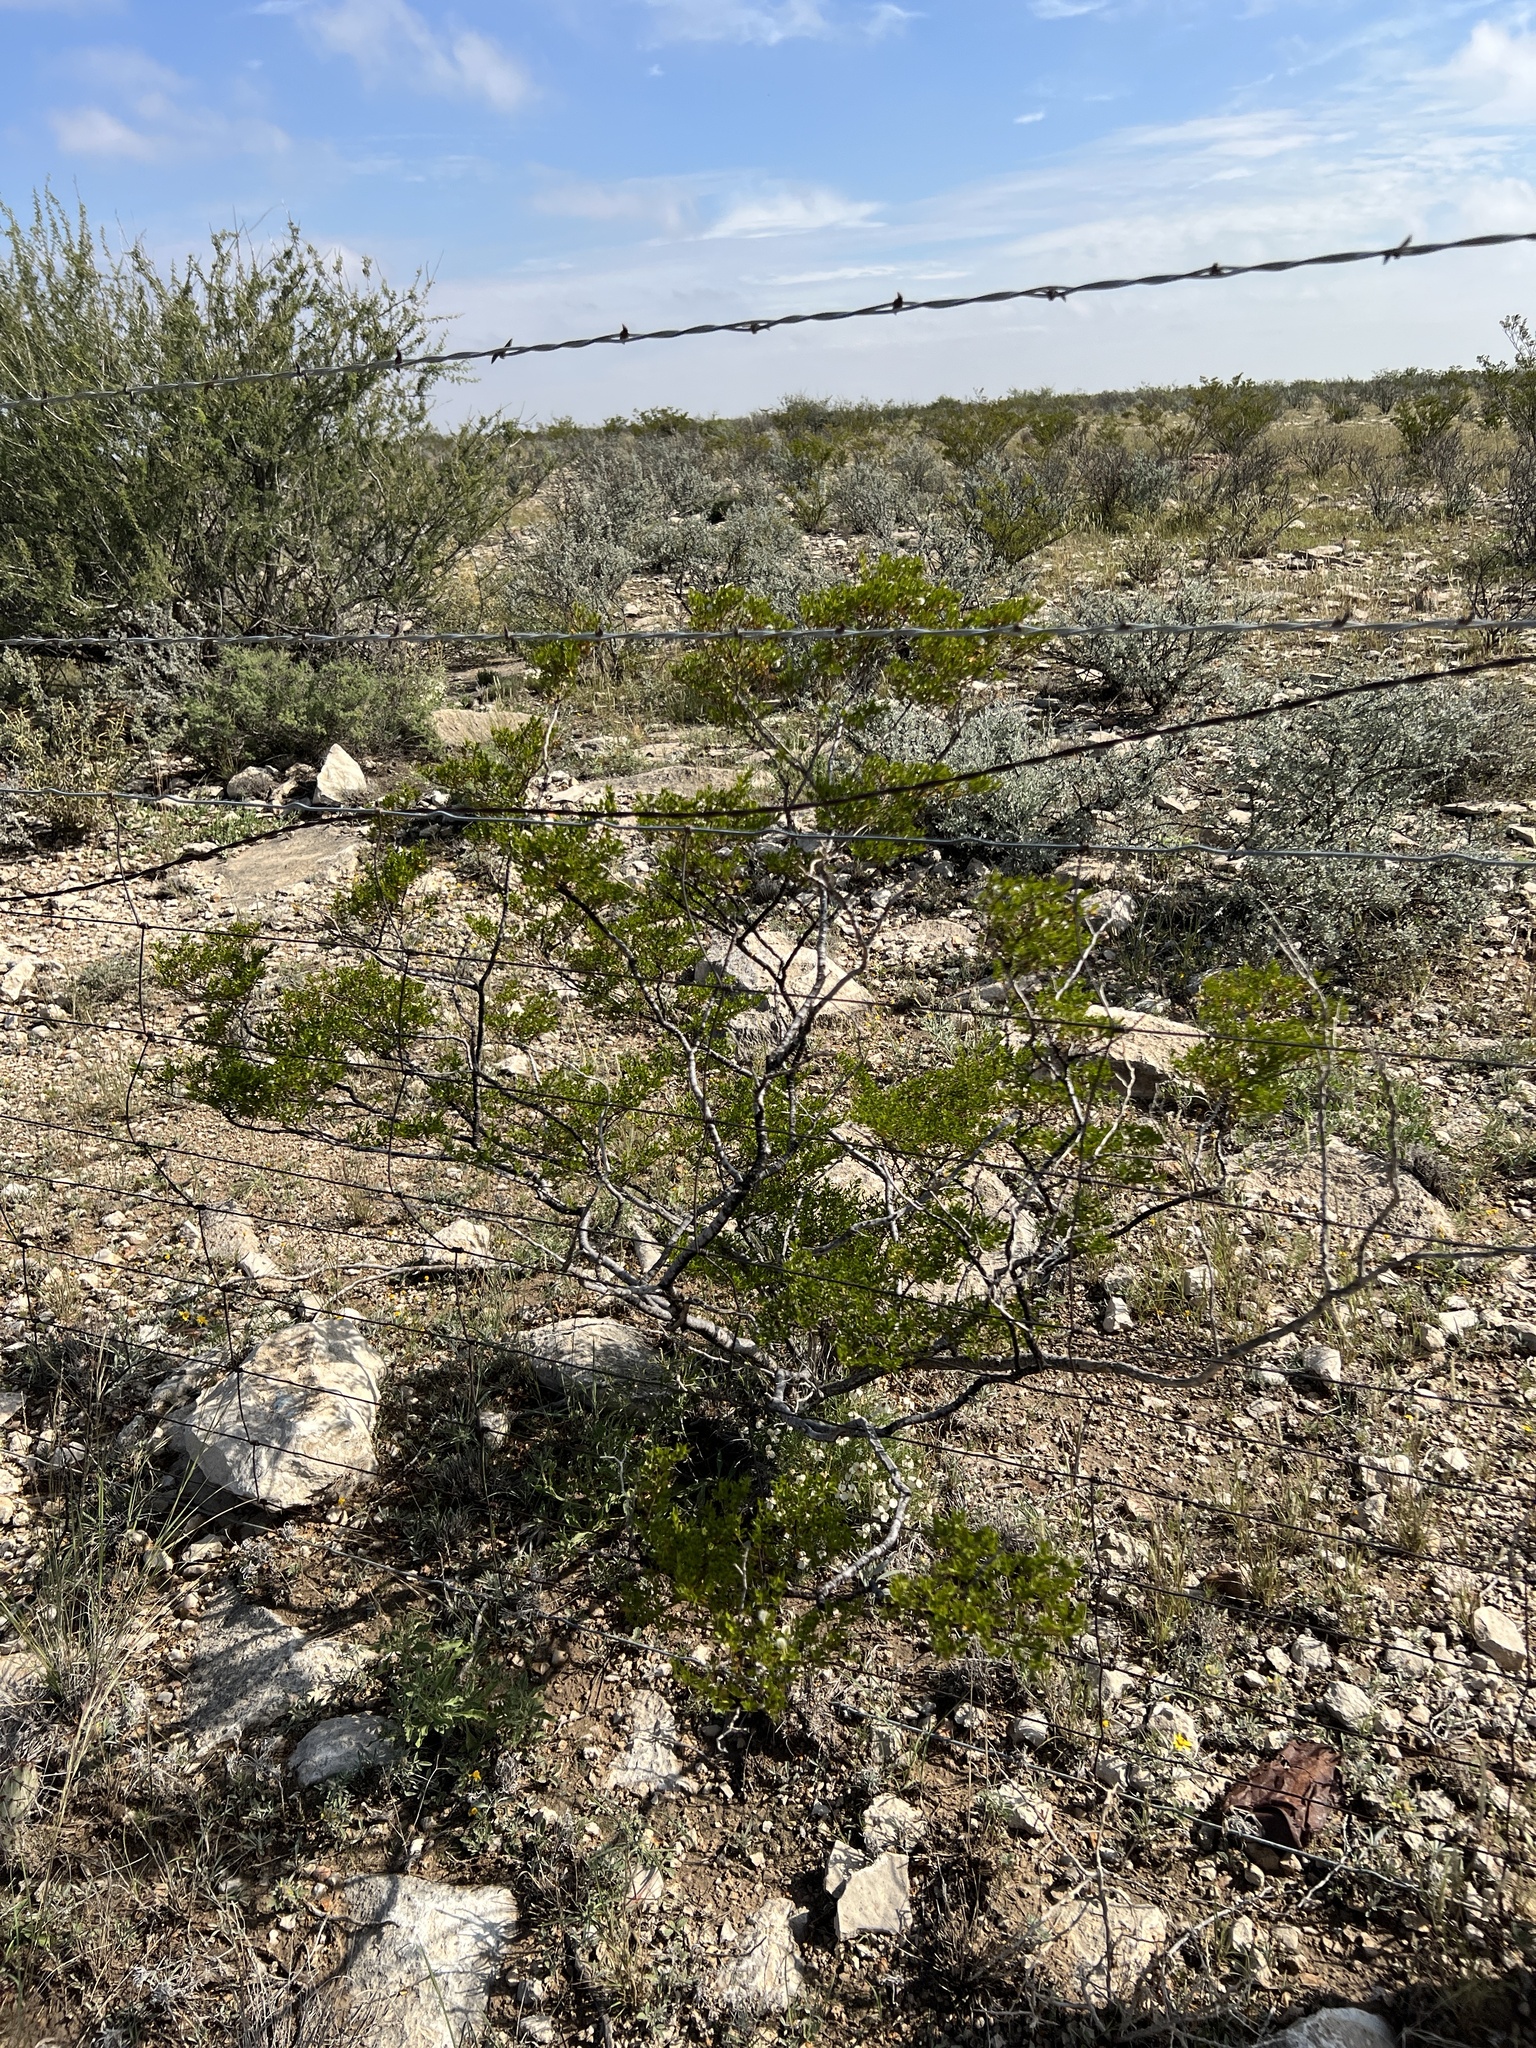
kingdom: Plantae
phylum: Tracheophyta
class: Magnoliopsida
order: Zygophyllales
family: Zygophyllaceae
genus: Larrea
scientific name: Larrea tridentata
